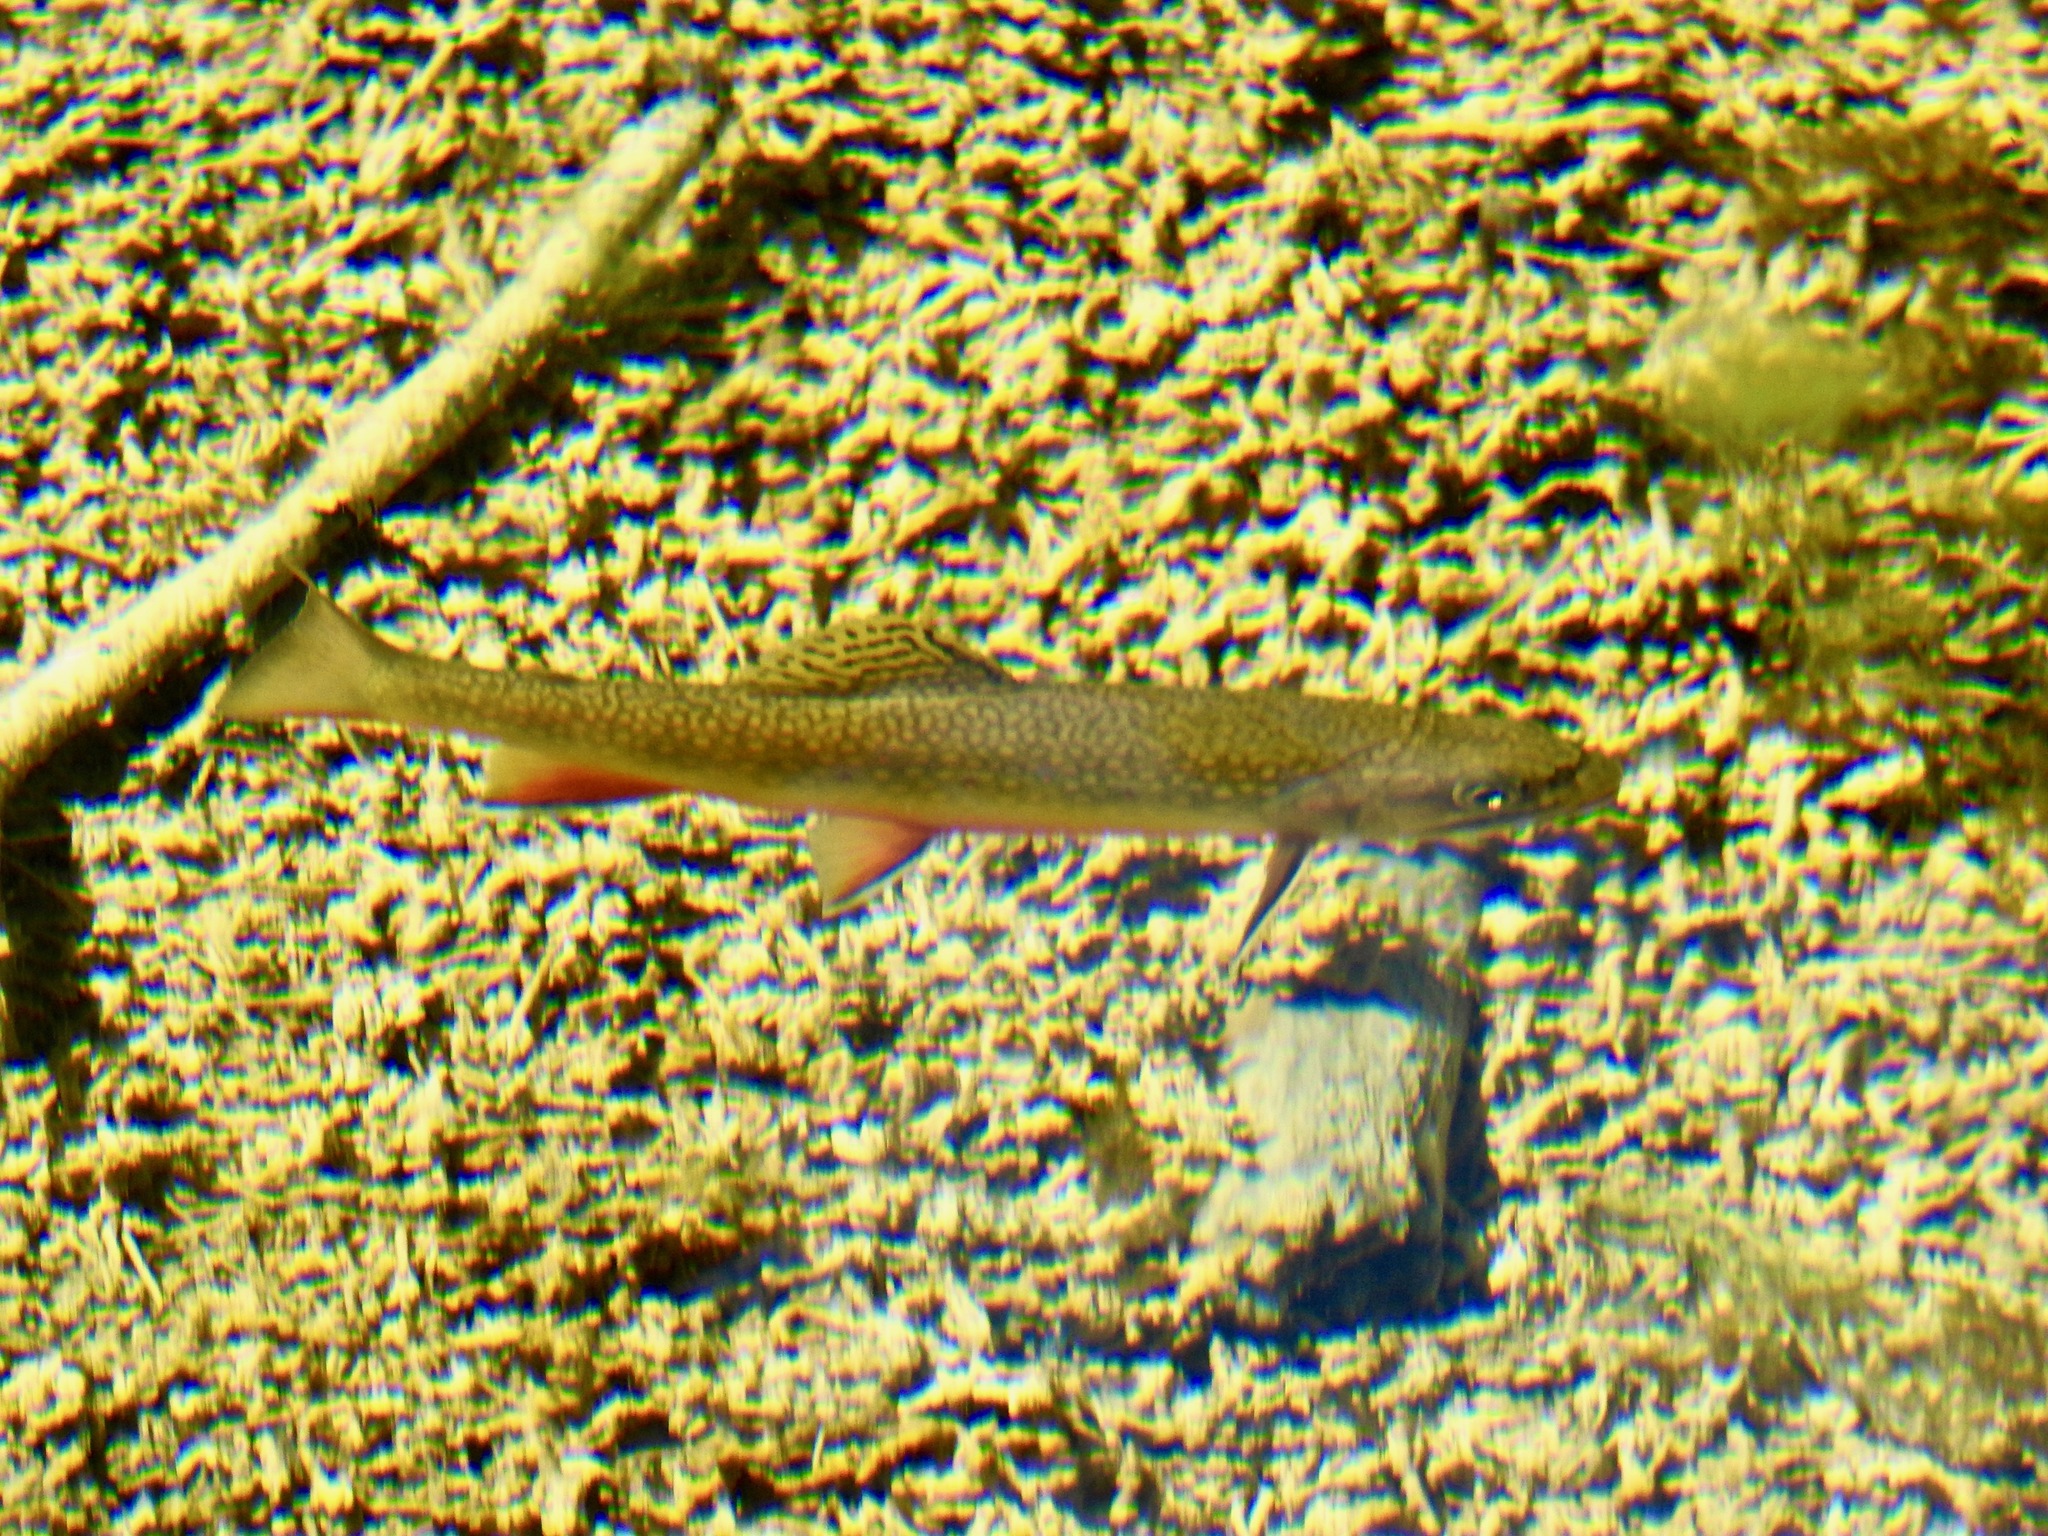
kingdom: Animalia
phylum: Chordata
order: Salmoniformes
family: Salmonidae
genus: Salvelinus
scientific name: Salvelinus fontinalis
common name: Brook trout
